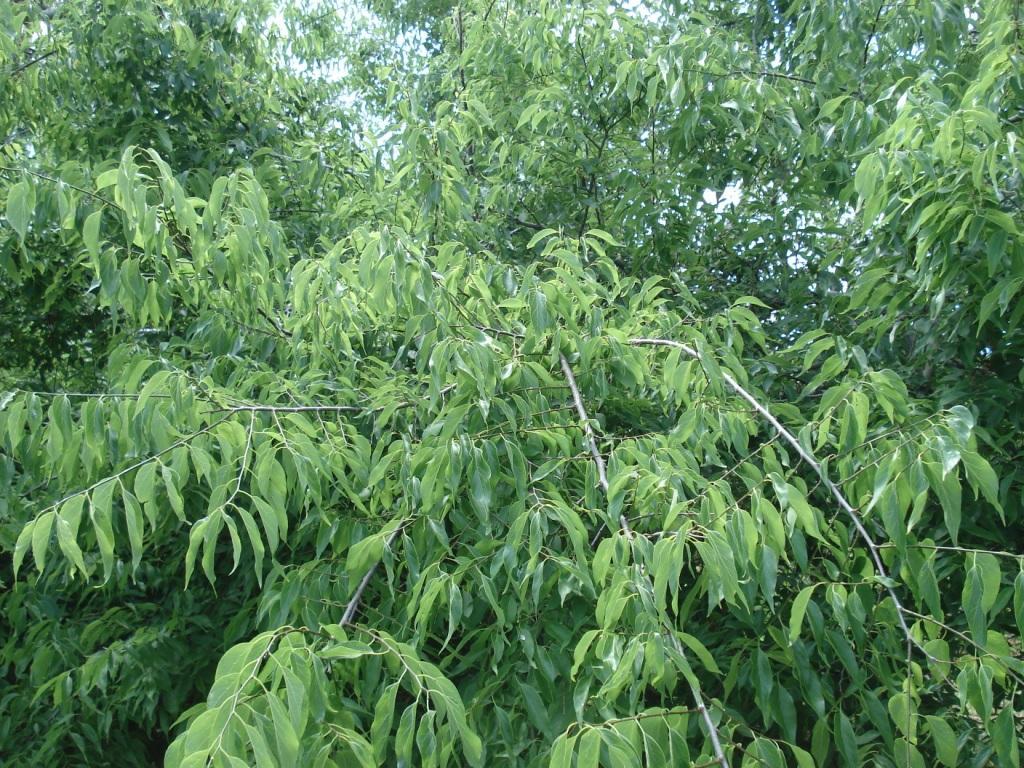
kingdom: Plantae
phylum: Tracheophyta
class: Magnoliopsida
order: Rosales
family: Cannabaceae
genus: Celtis
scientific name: Celtis laevigata
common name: Sugarberry
